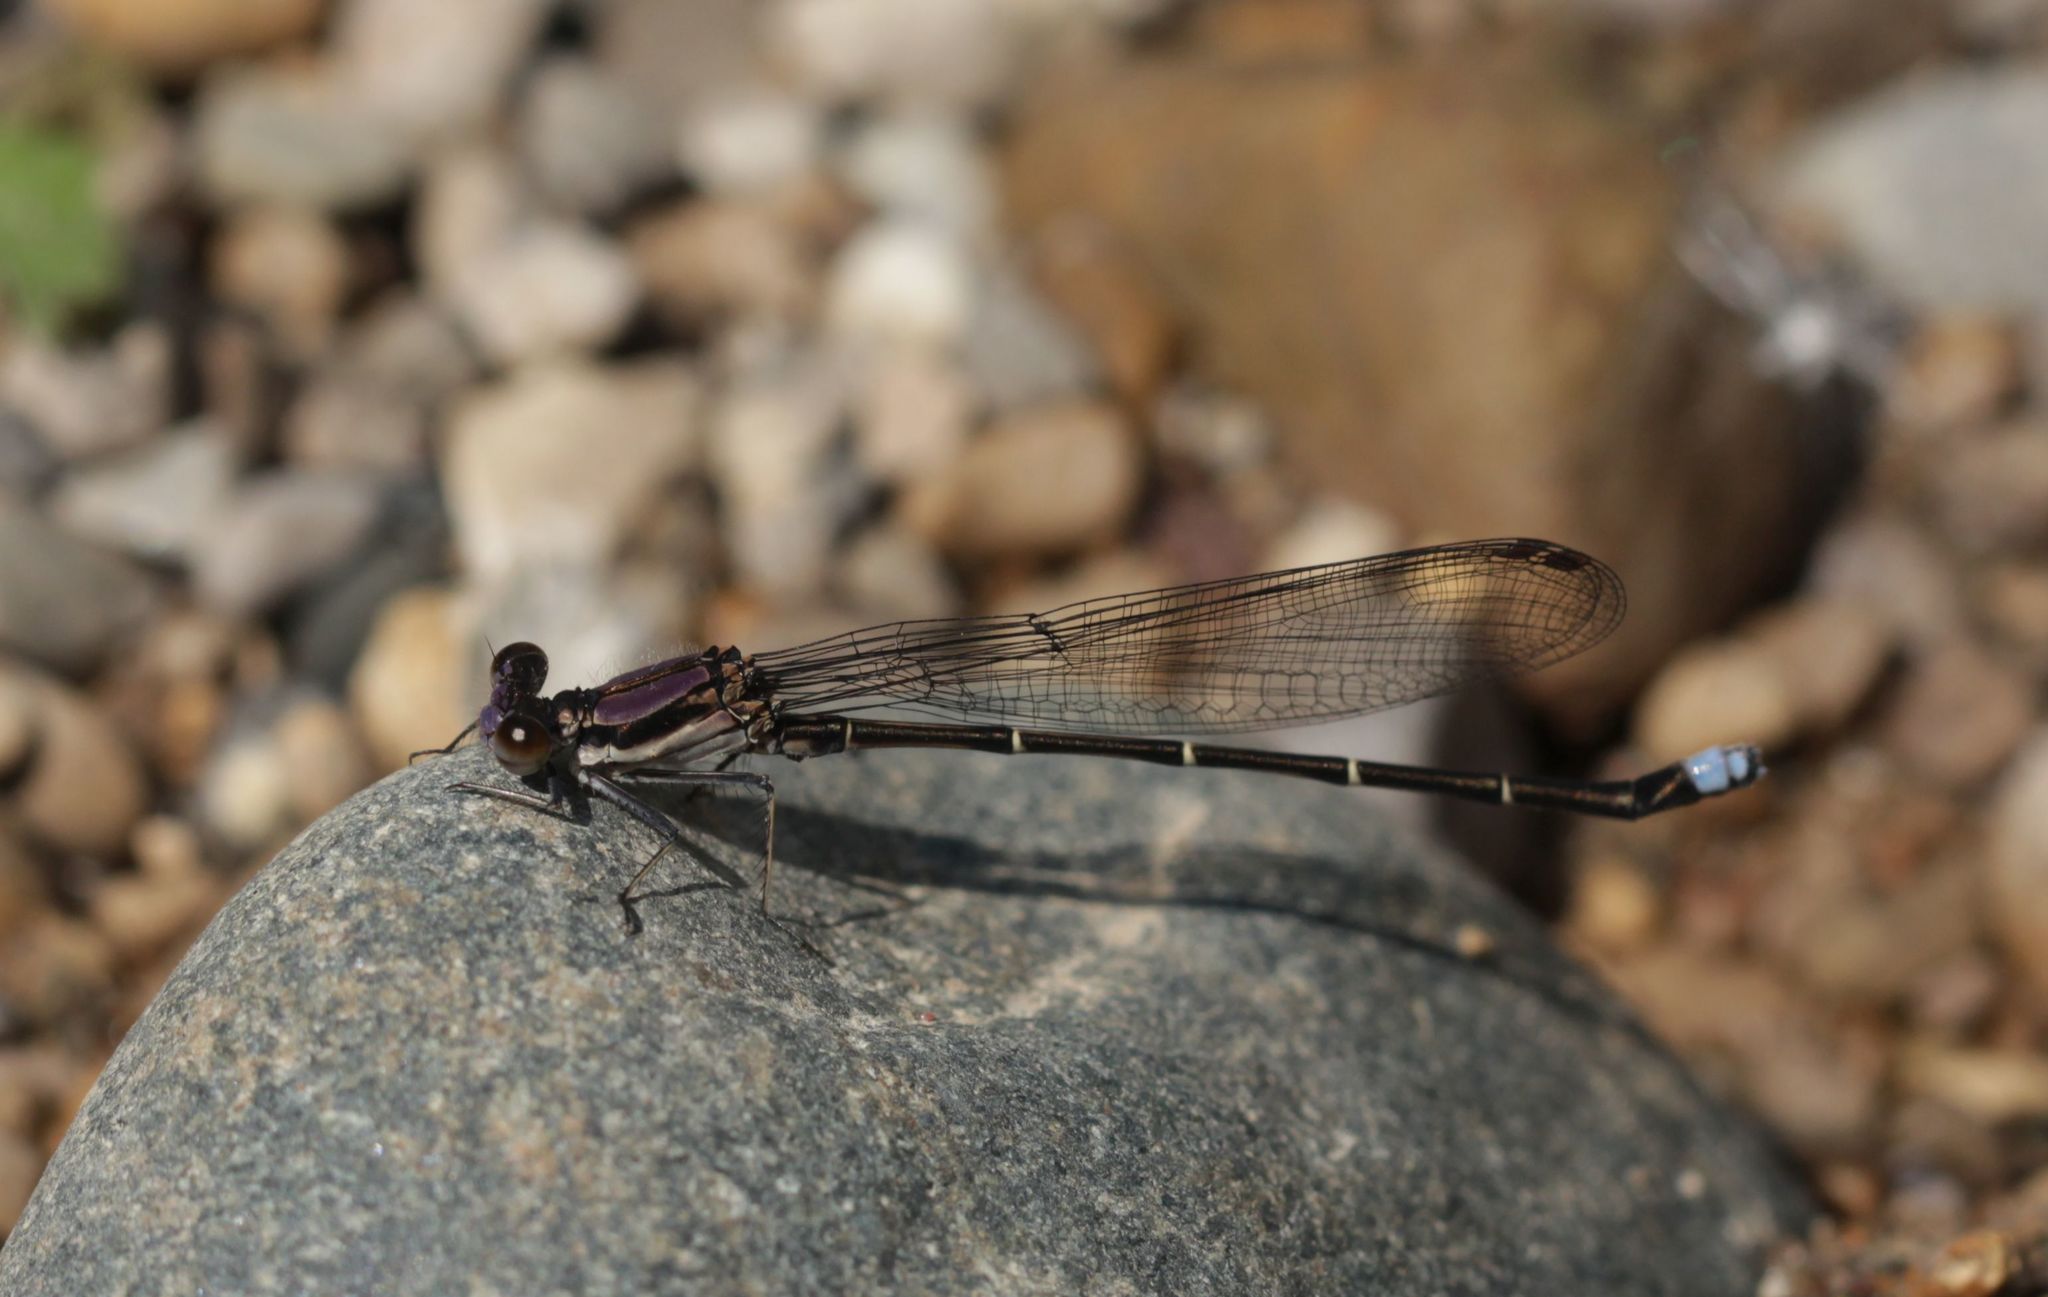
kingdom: Animalia
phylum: Arthropoda
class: Insecta
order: Odonata
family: Coenagrionidae
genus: Argia
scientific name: Argia tibialis
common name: Blue-tipped dancer
